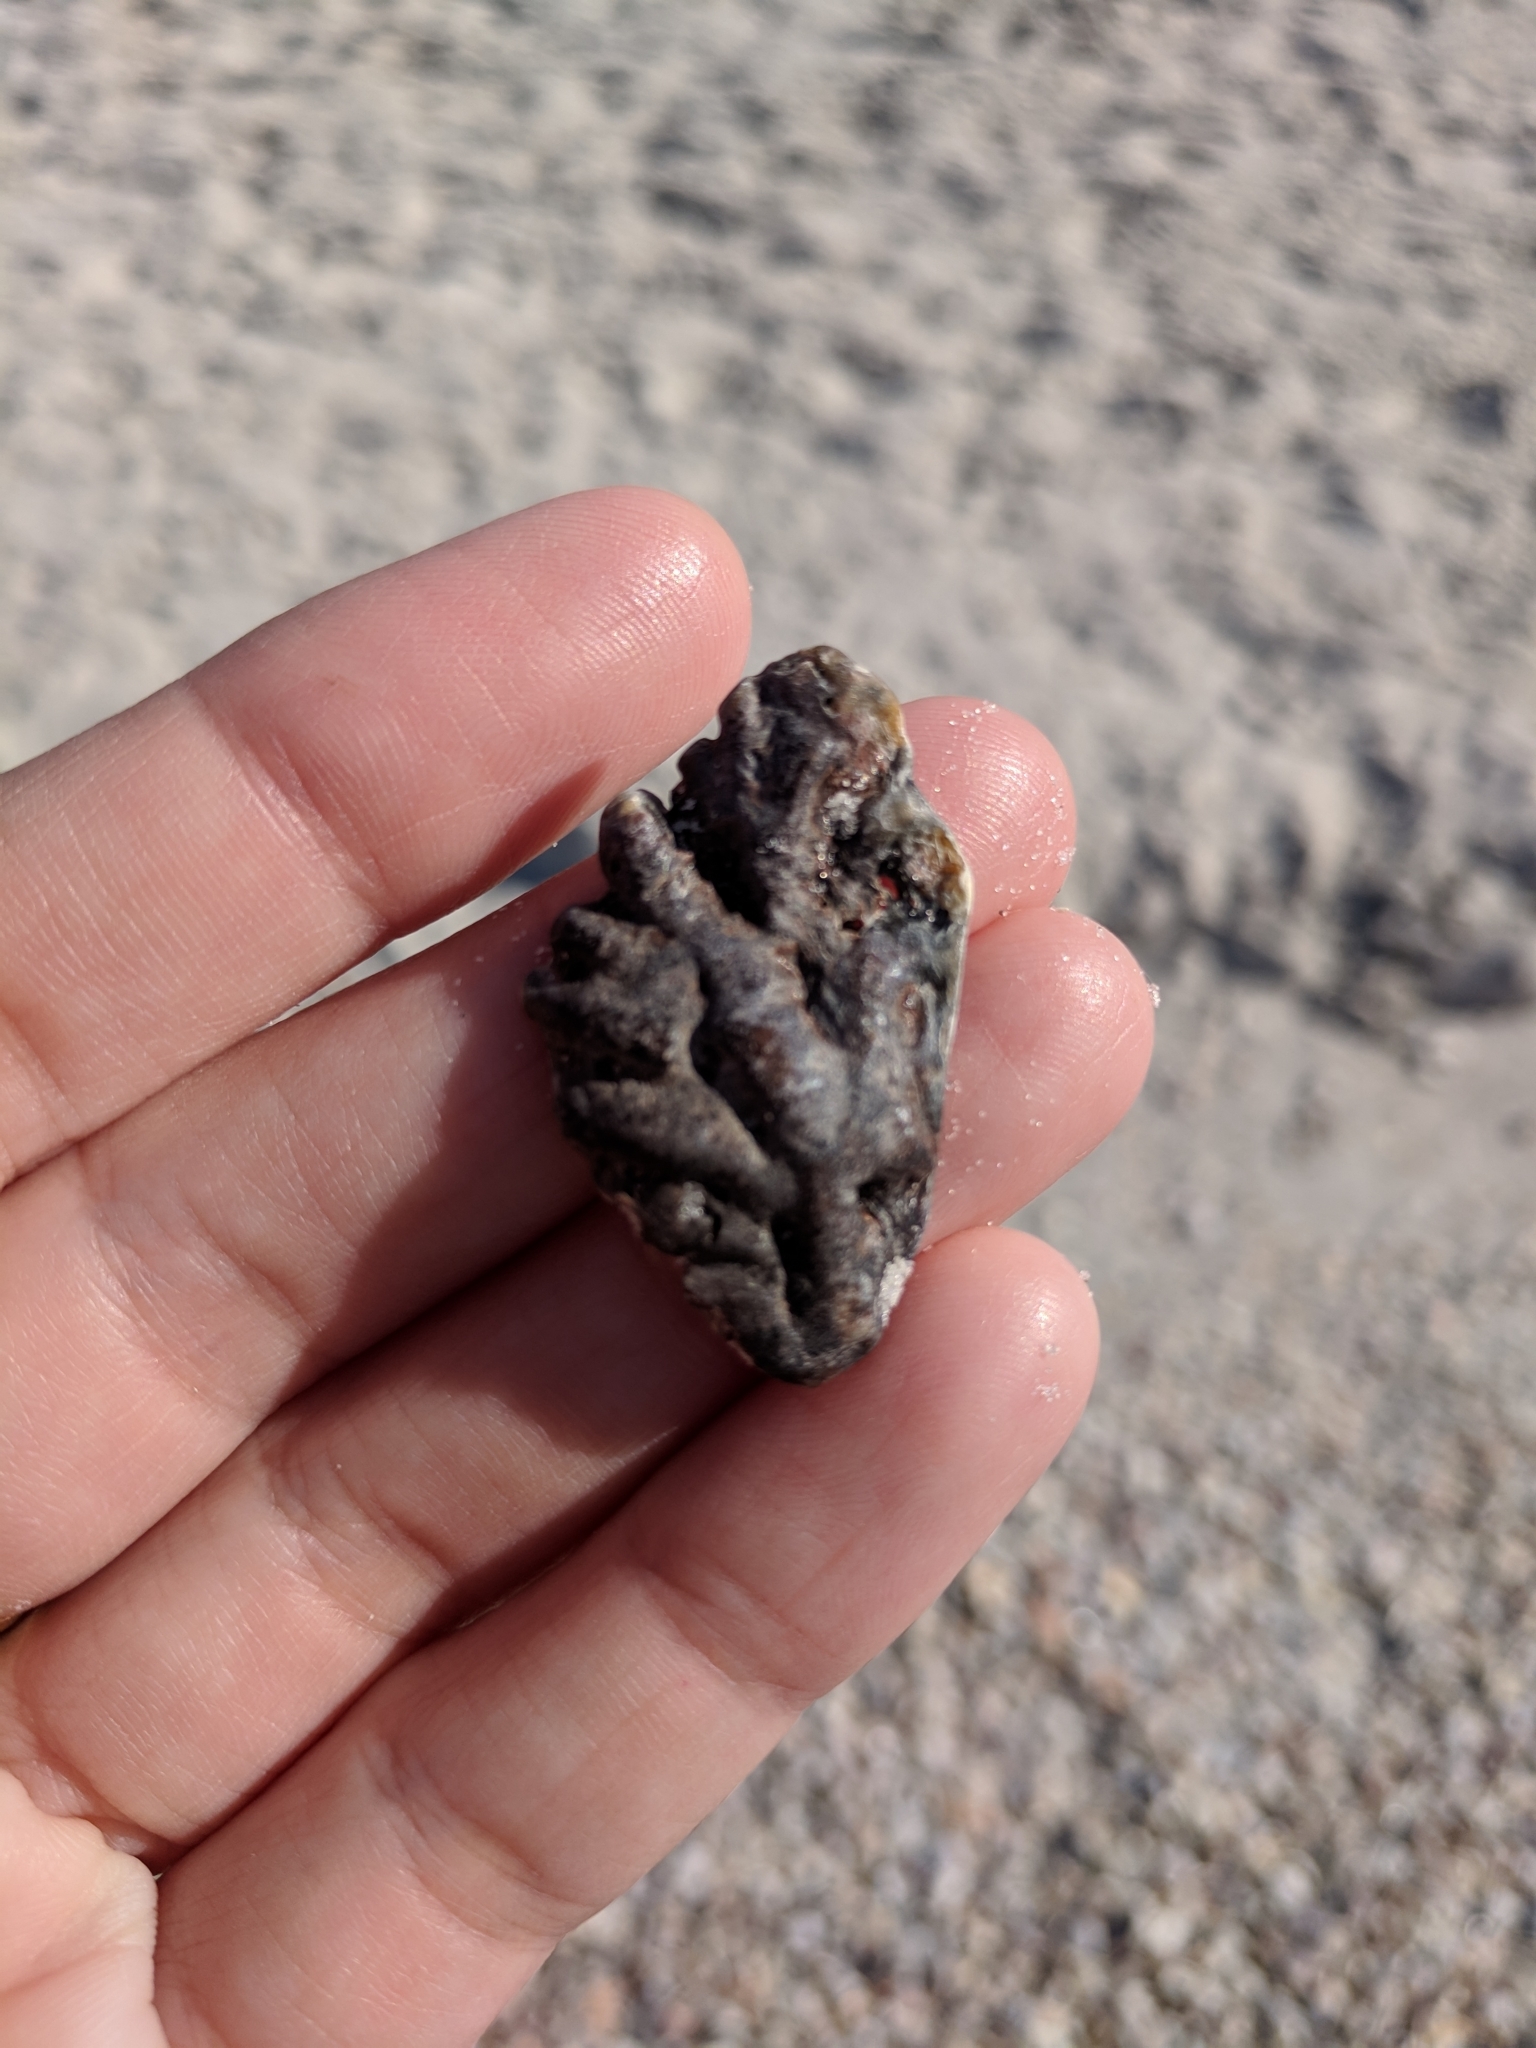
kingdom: Animalia
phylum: Mollusca
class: Bivalvia
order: Ostreida
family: Ostreidae
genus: Dendostrea
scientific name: Dendostrea frons
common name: Frond oyster
